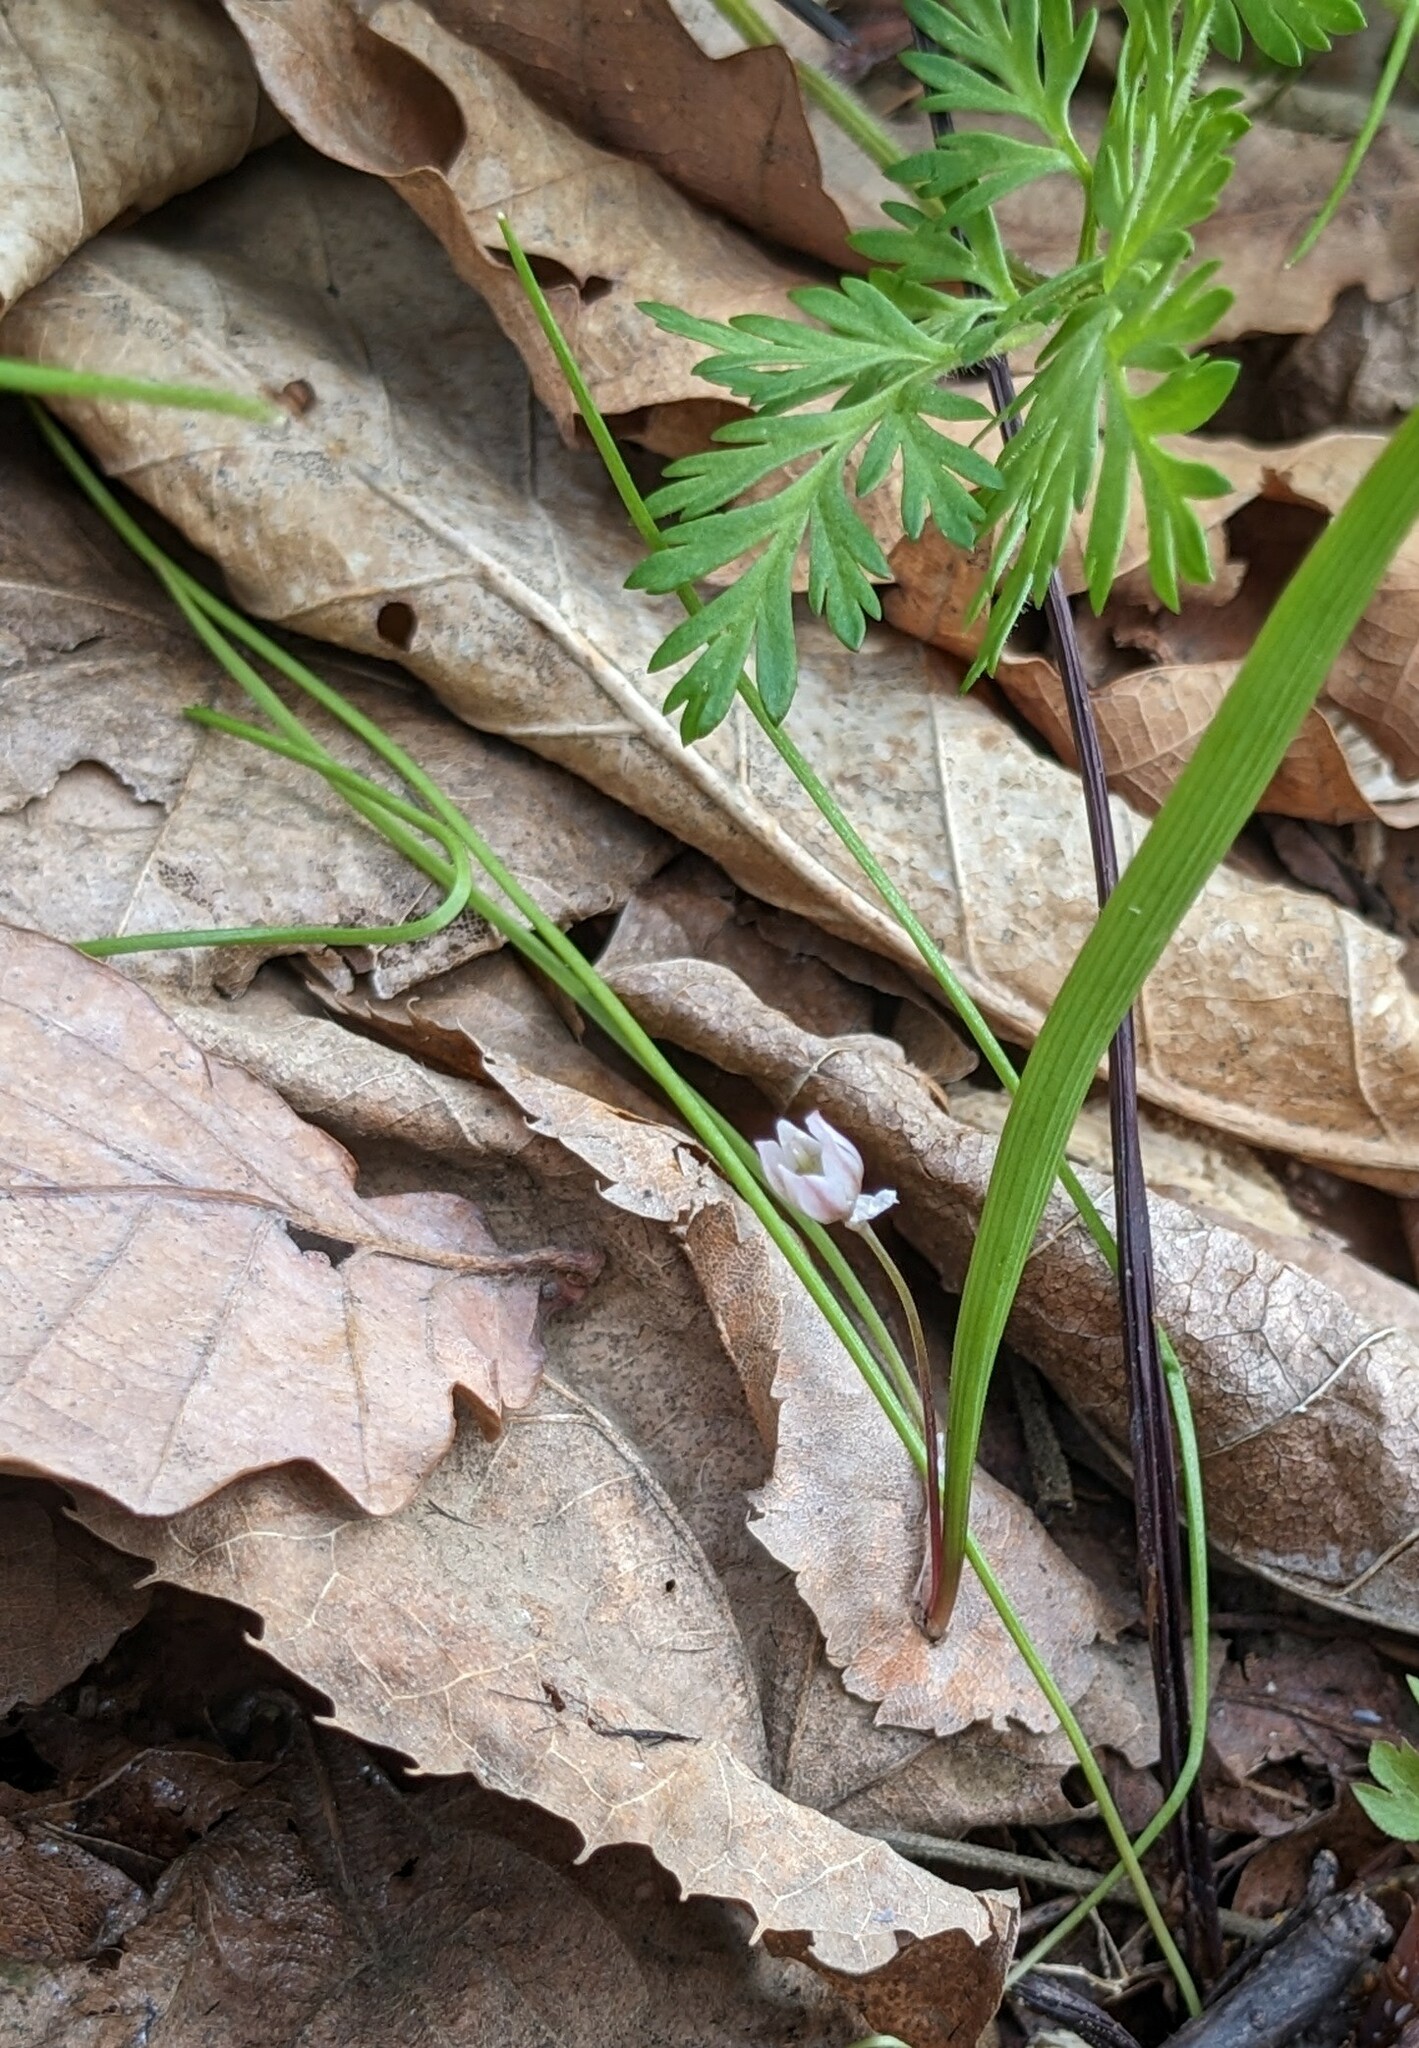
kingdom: Plantae
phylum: Tracheophyta
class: Liliopsida
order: Asparagales
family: Amaryllidaceae
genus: Allium
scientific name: Allium monanthum
